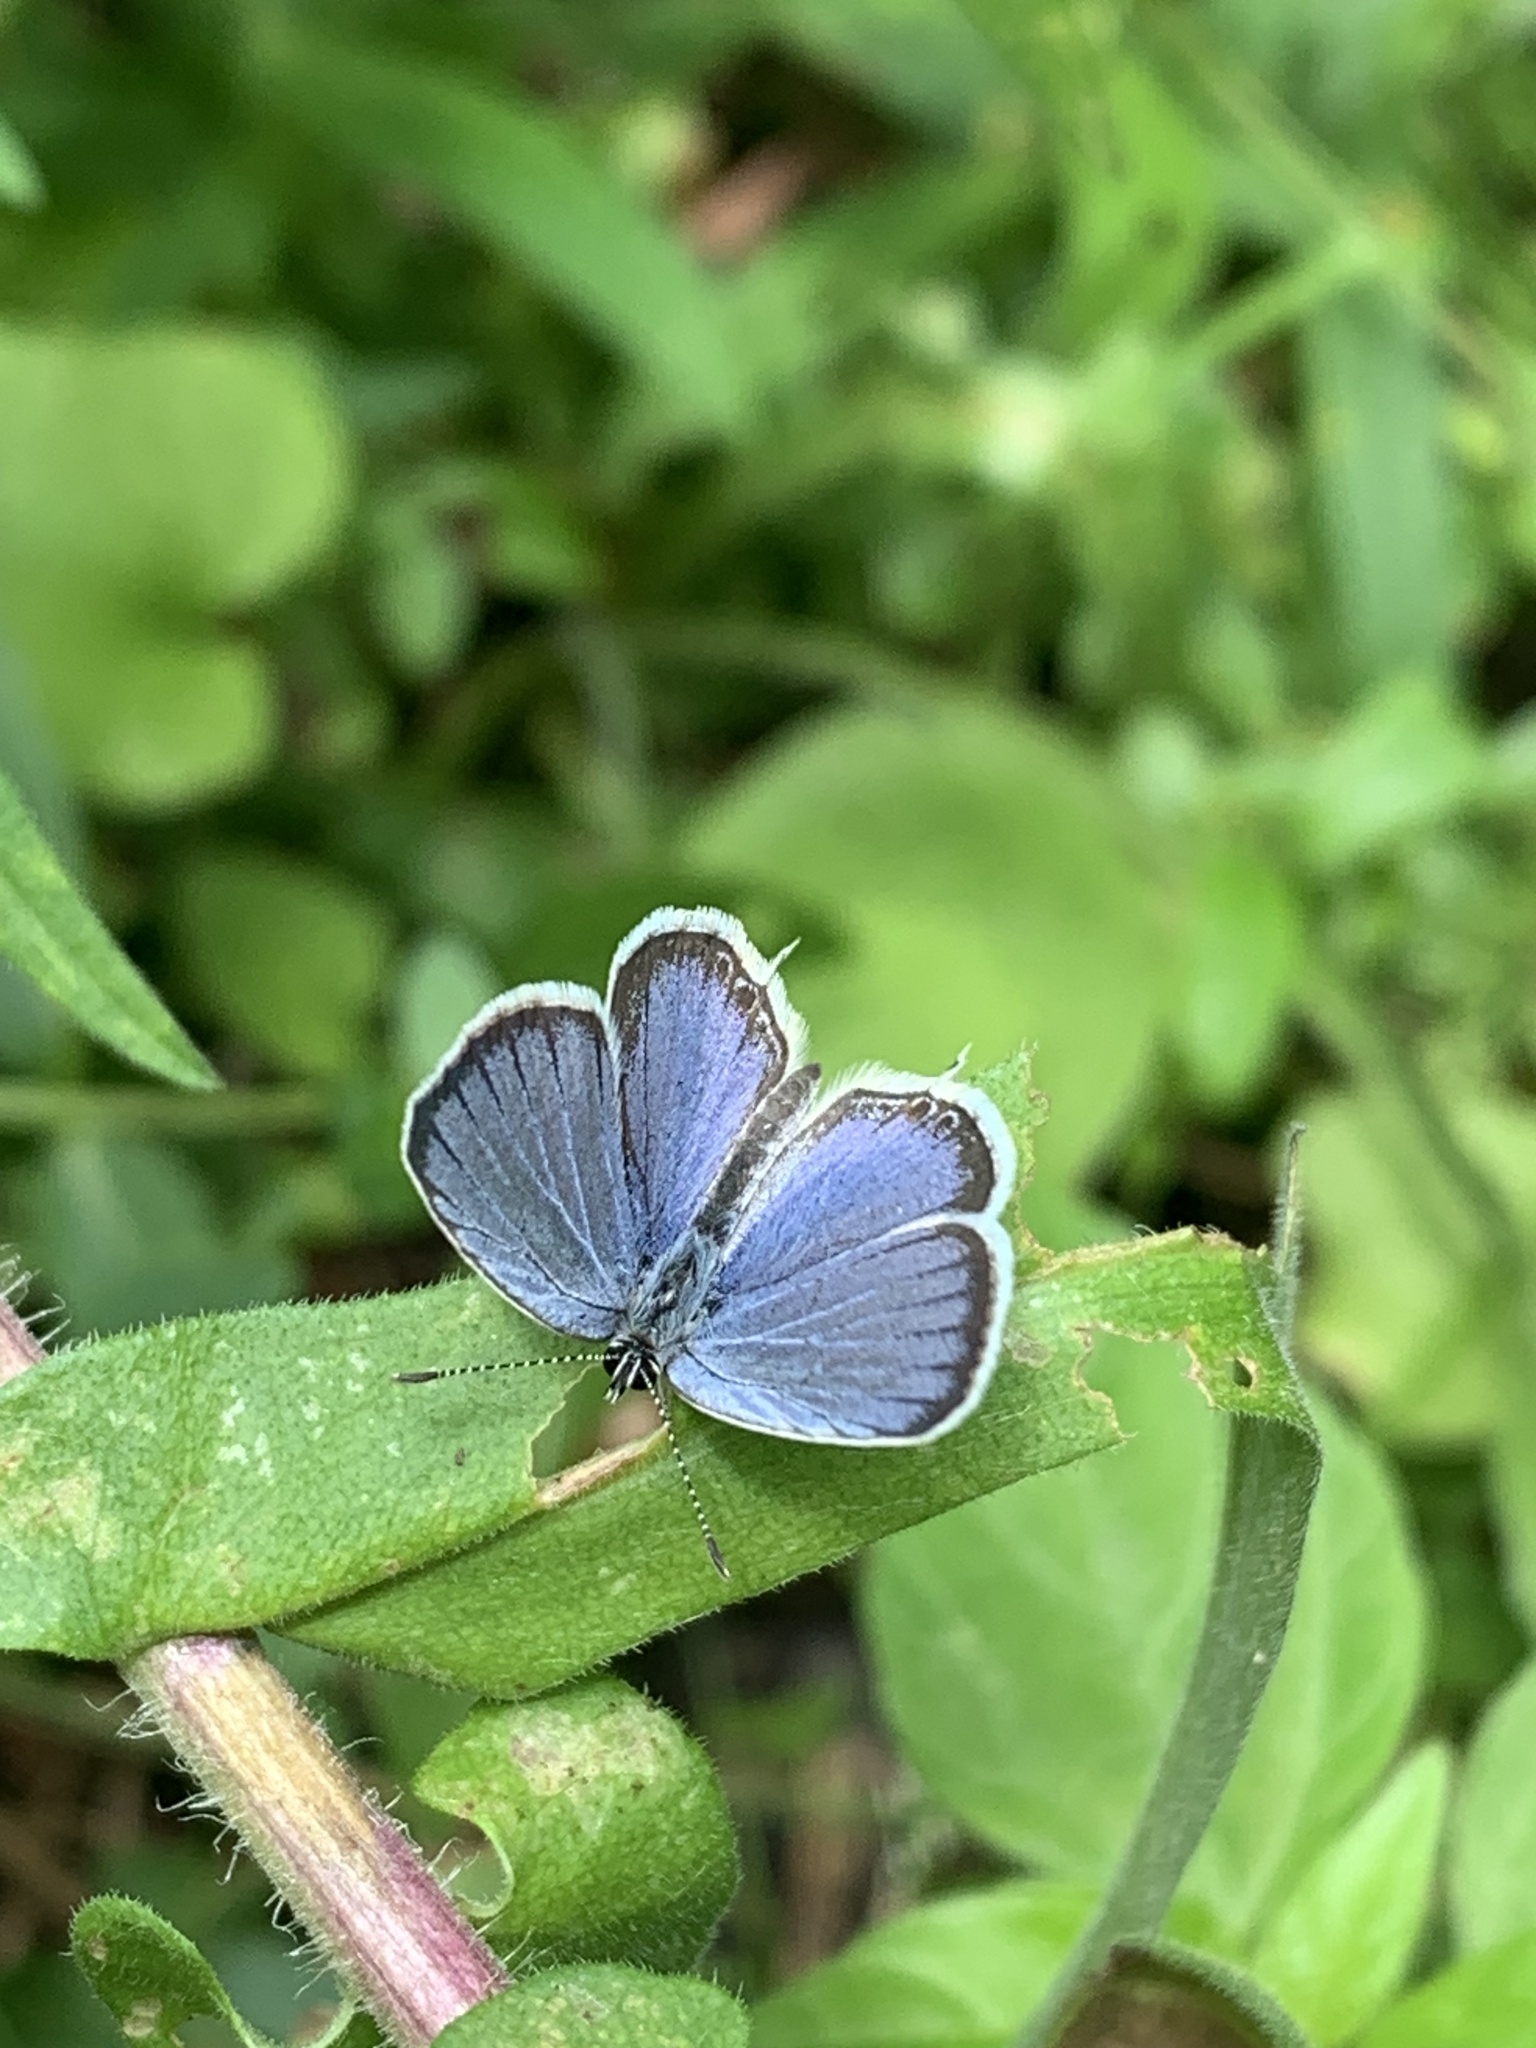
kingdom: Animalia
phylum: Arthropoda
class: Insecta
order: Lepidoptera
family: Lycaenidae
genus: Elkalyce
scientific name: Elkalyce comyntas
